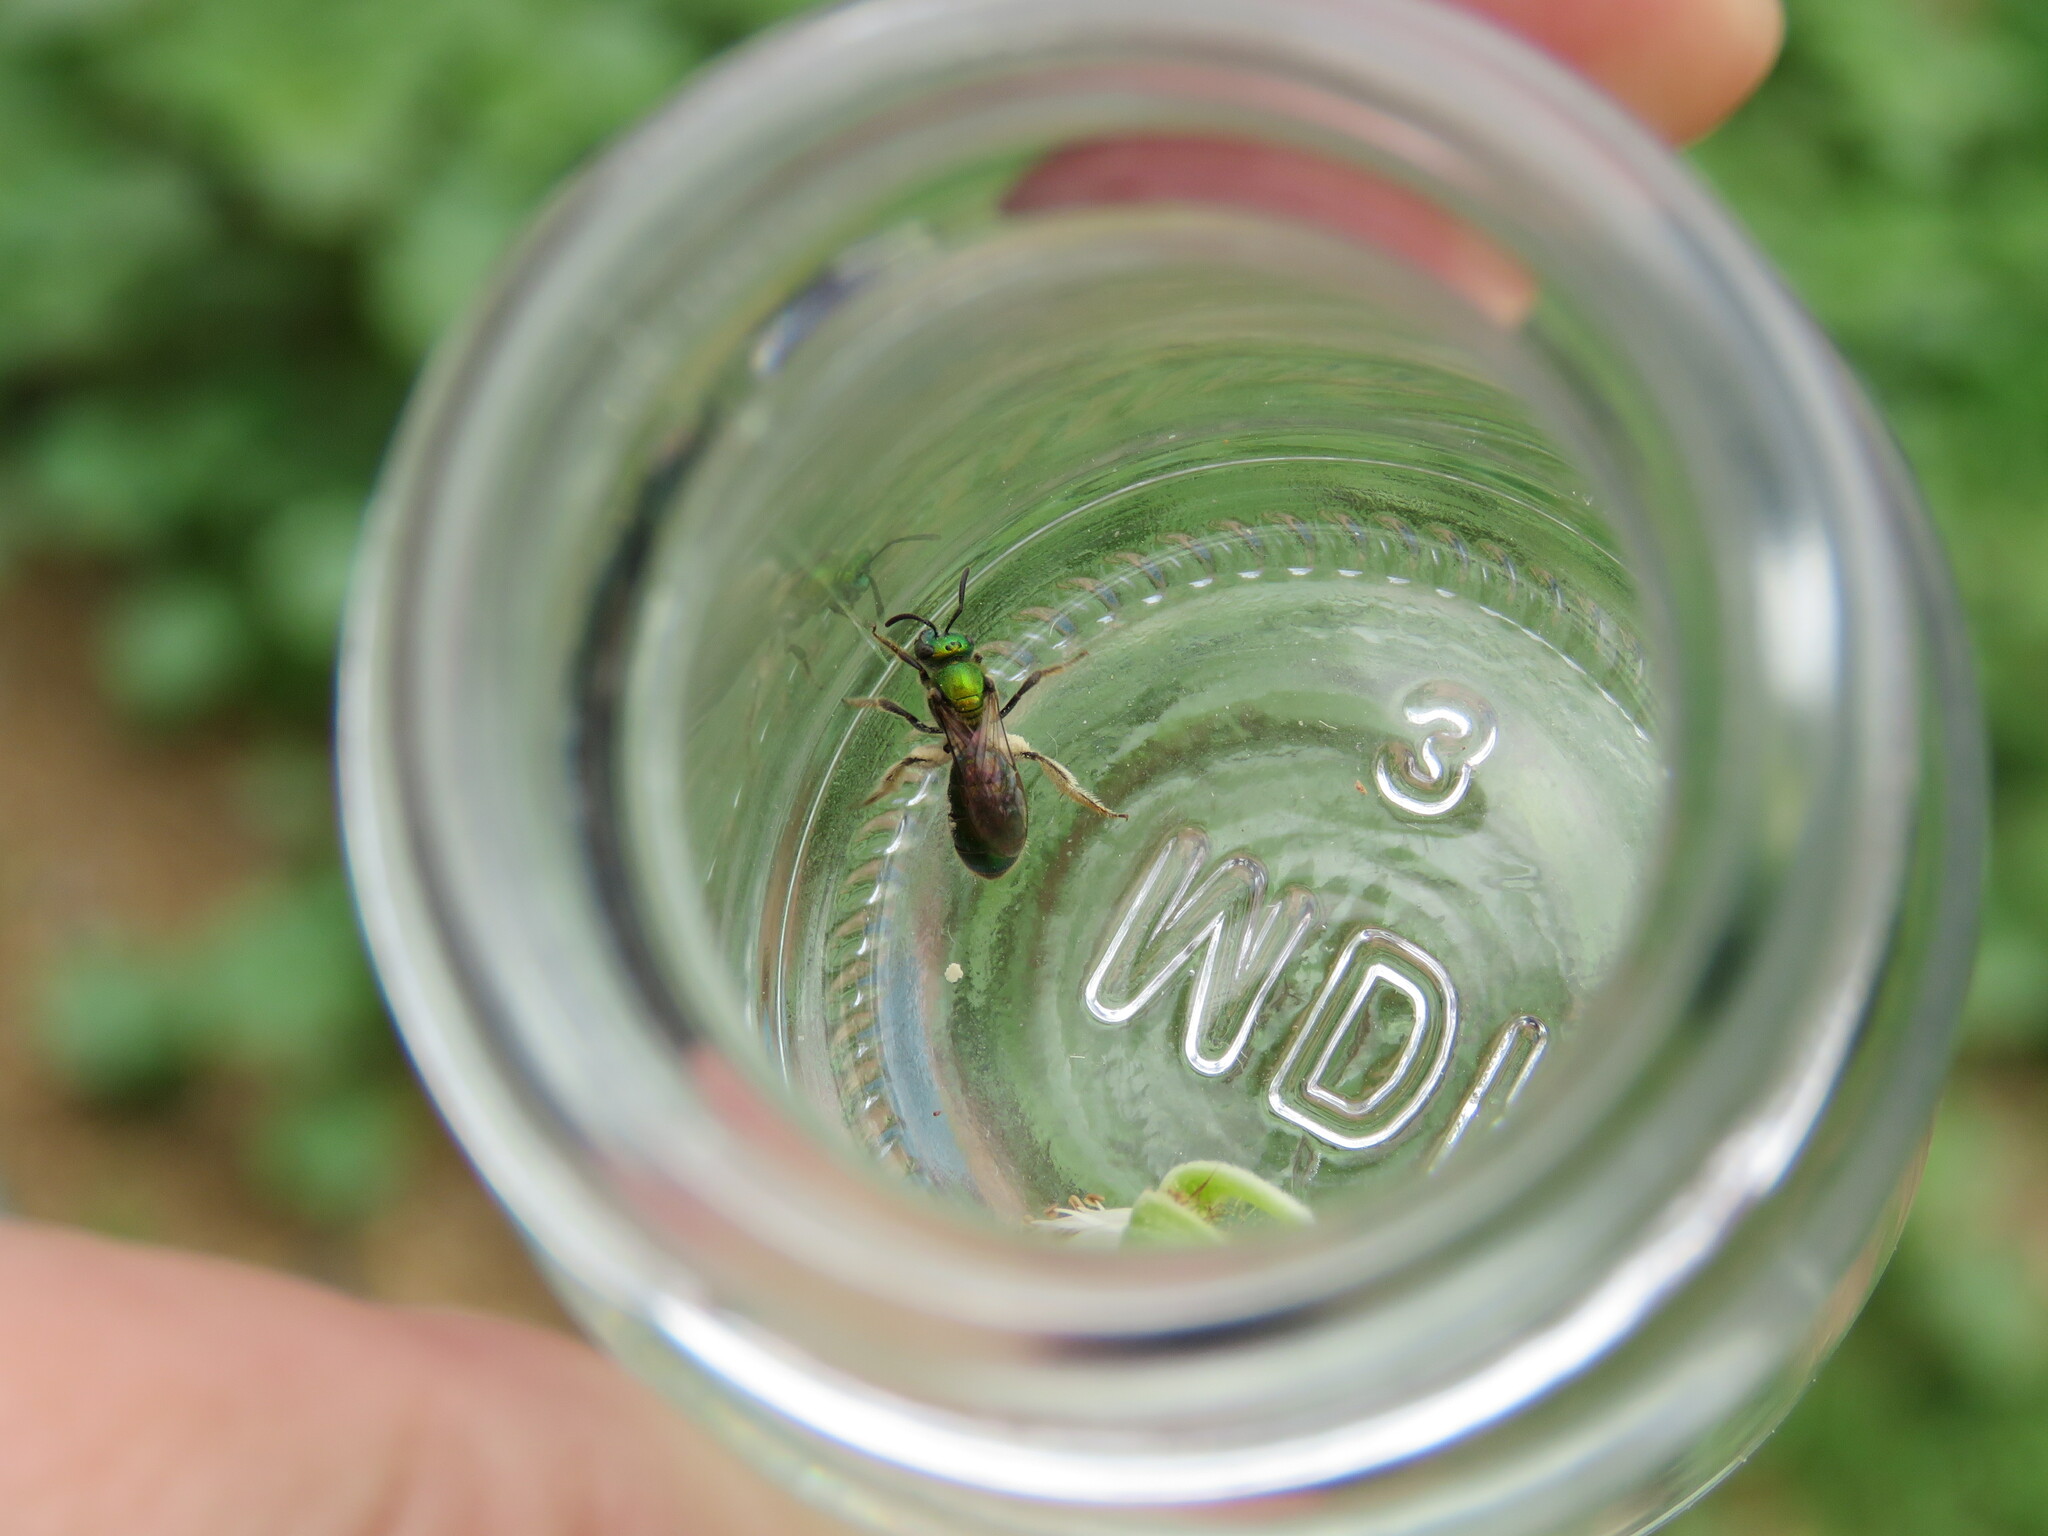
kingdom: Animalia
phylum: Arthropoda
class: Insecta
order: Hymenoptera
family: Halictidae
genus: Augochlora
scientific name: Augochlora pura
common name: Pure green sweat bee
